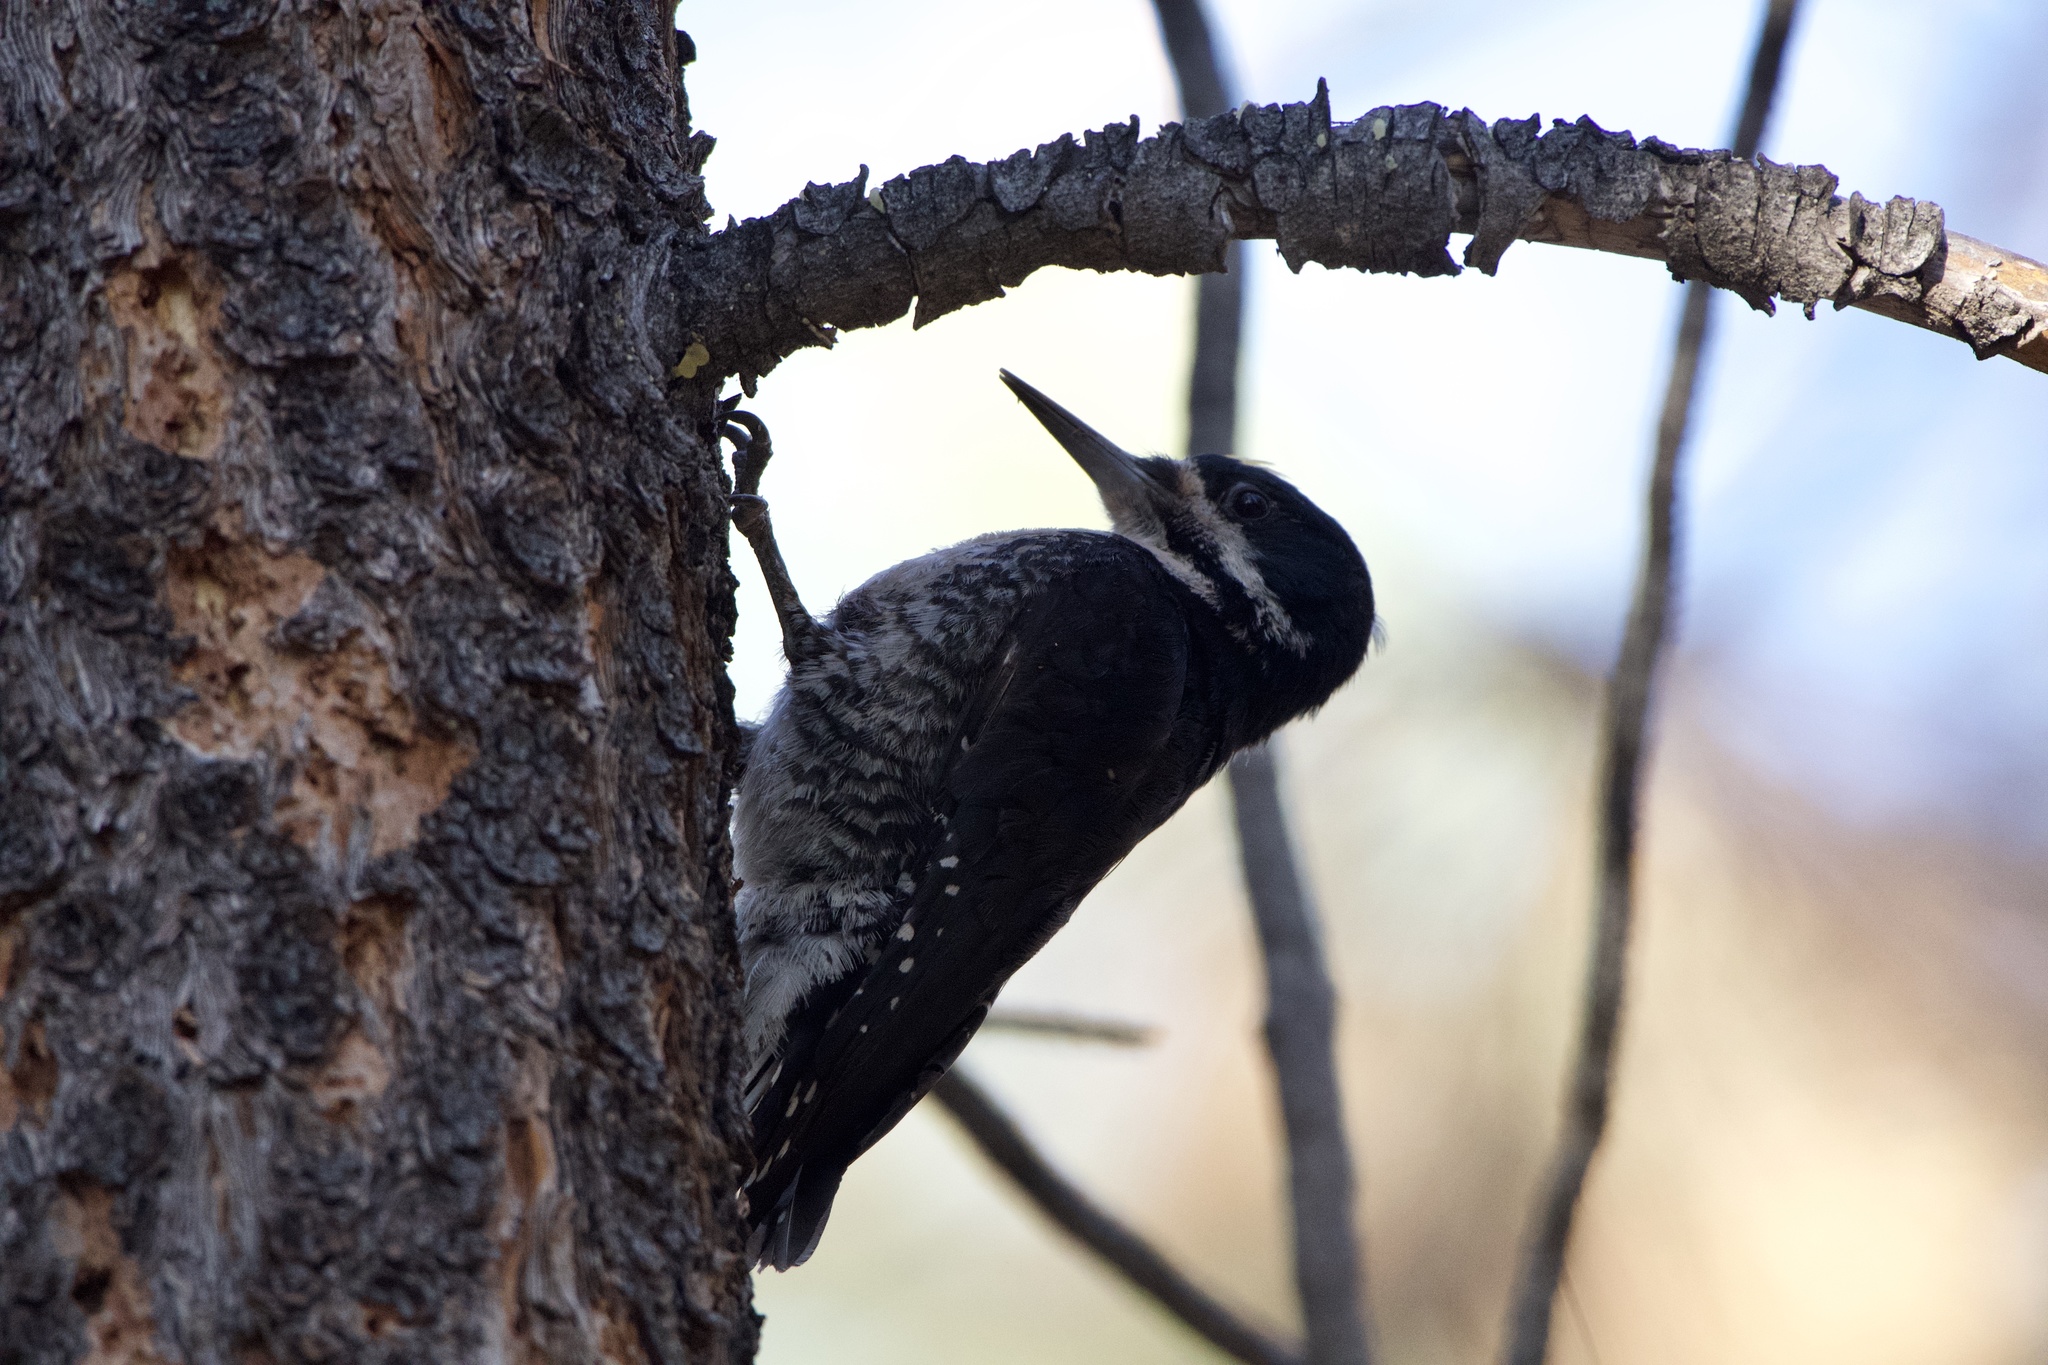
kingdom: Animalia
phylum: Chordata
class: Aves
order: Piciformes
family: Picidae
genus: Picoides
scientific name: Picoides arcticus
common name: Black-backed woodpecker
